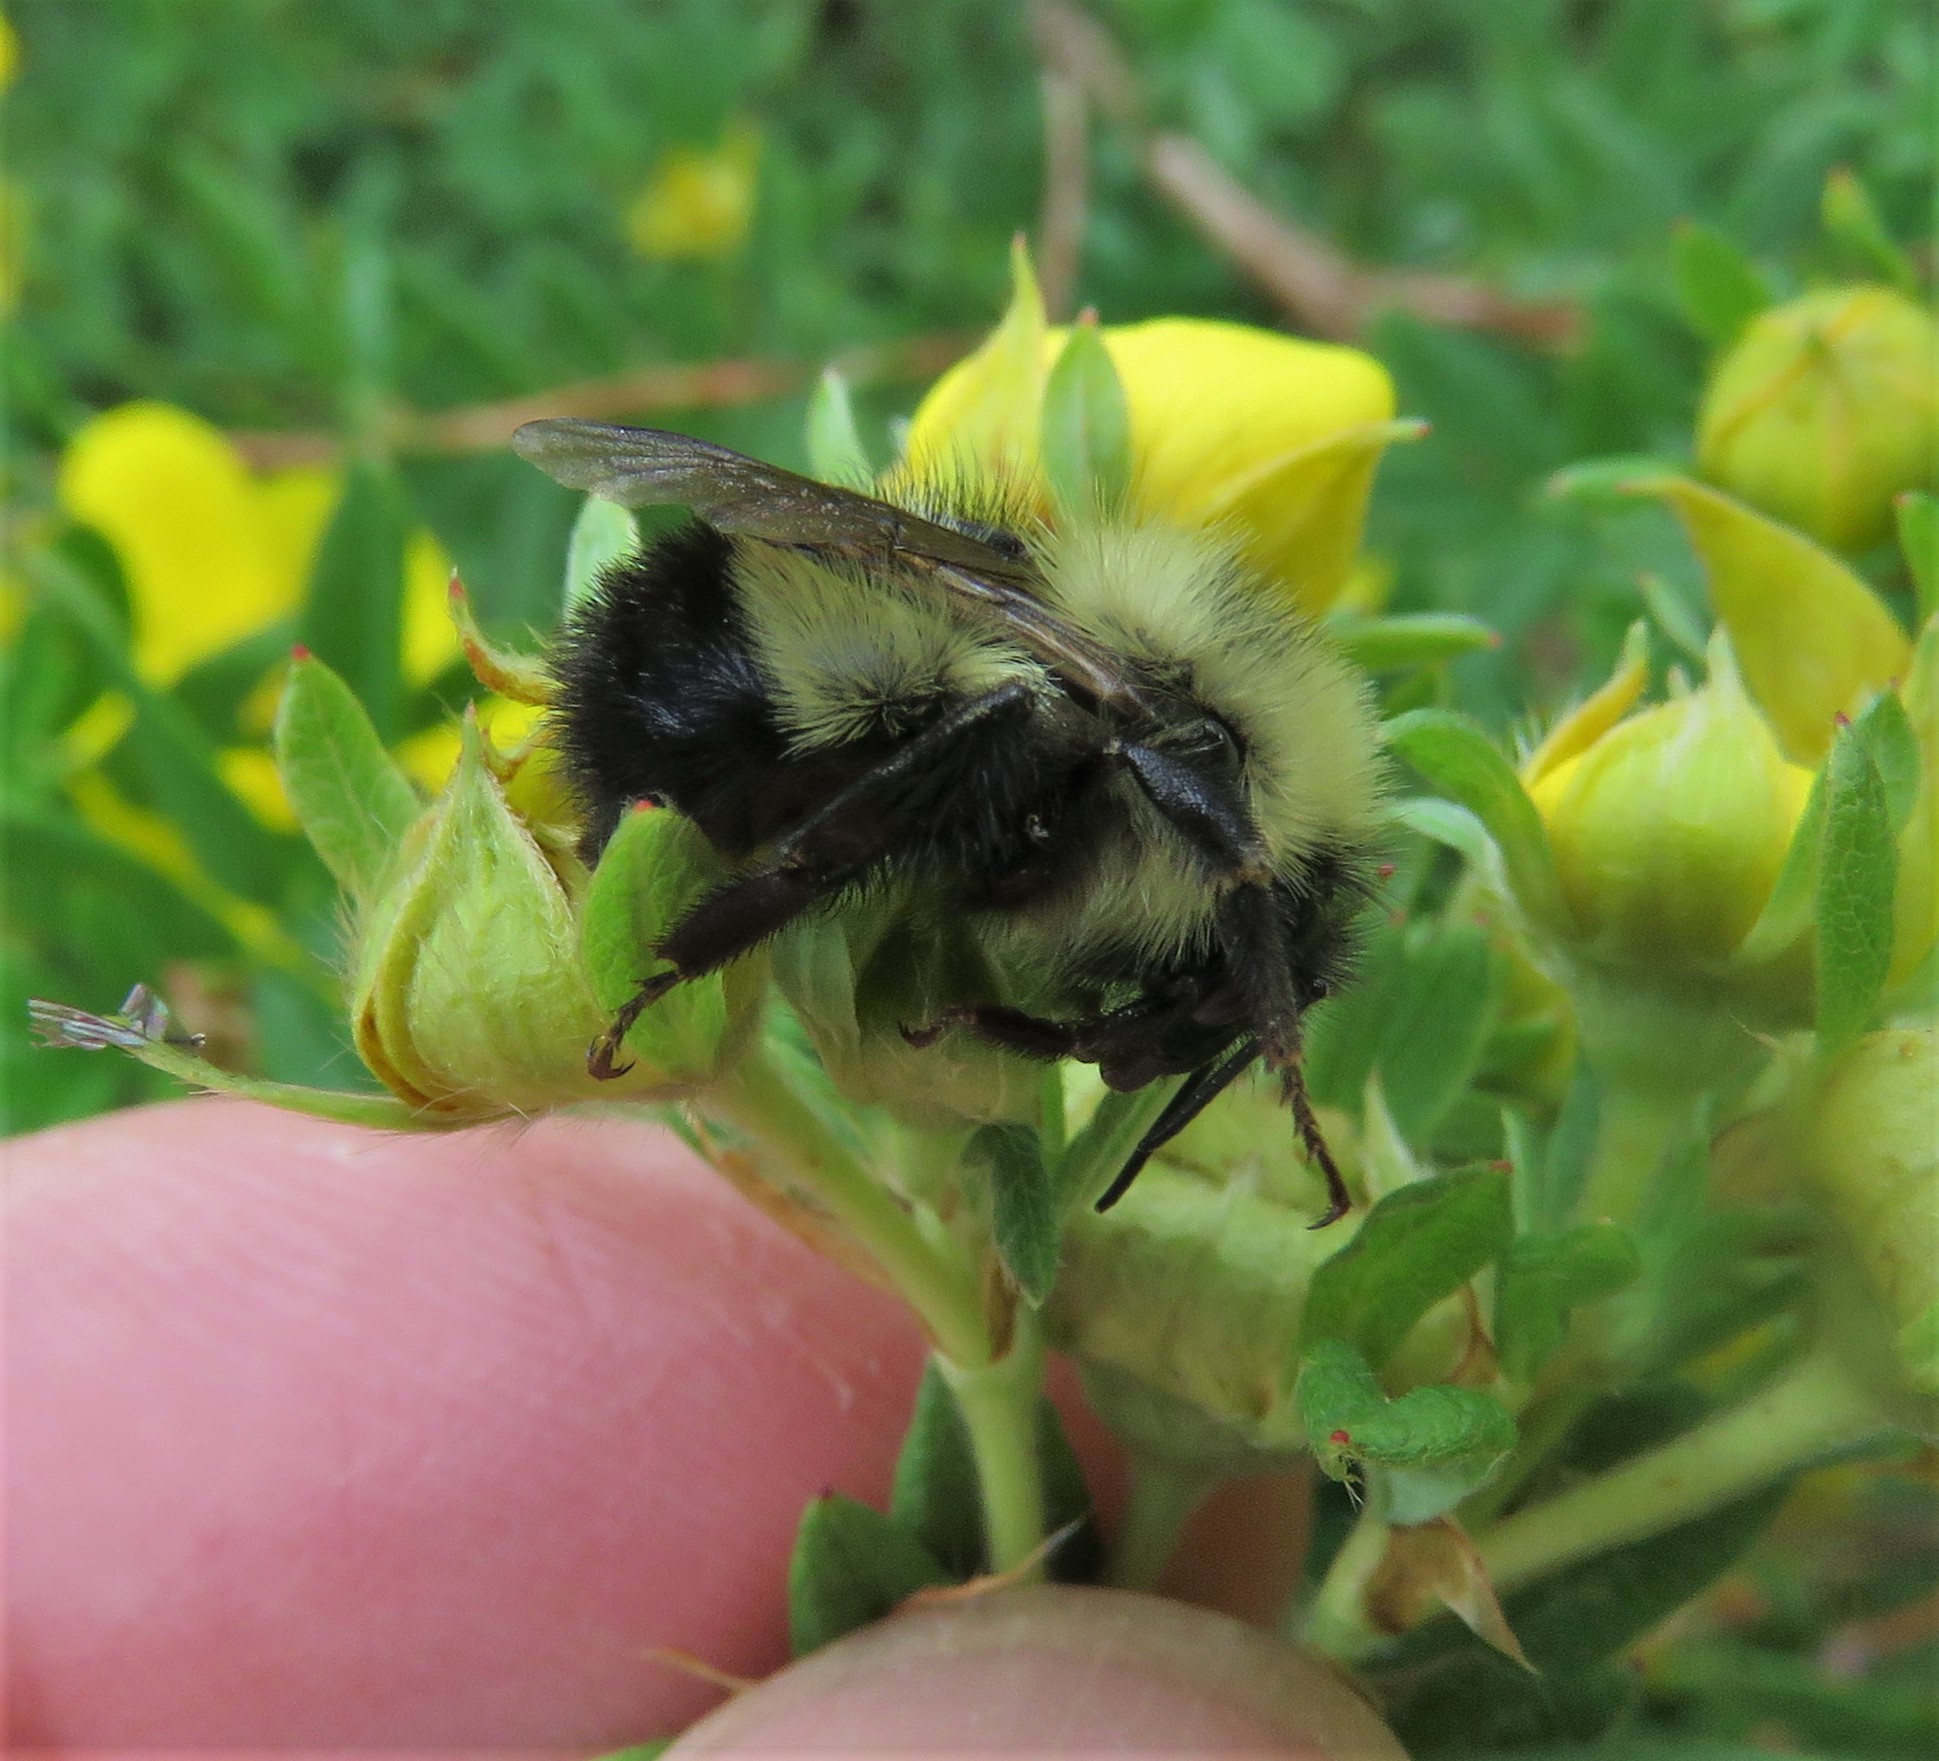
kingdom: Animalia
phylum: Arthropoda
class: Insecta
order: Hymenoptera
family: Apidae
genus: Pyrobombus
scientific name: Pyrobombus
